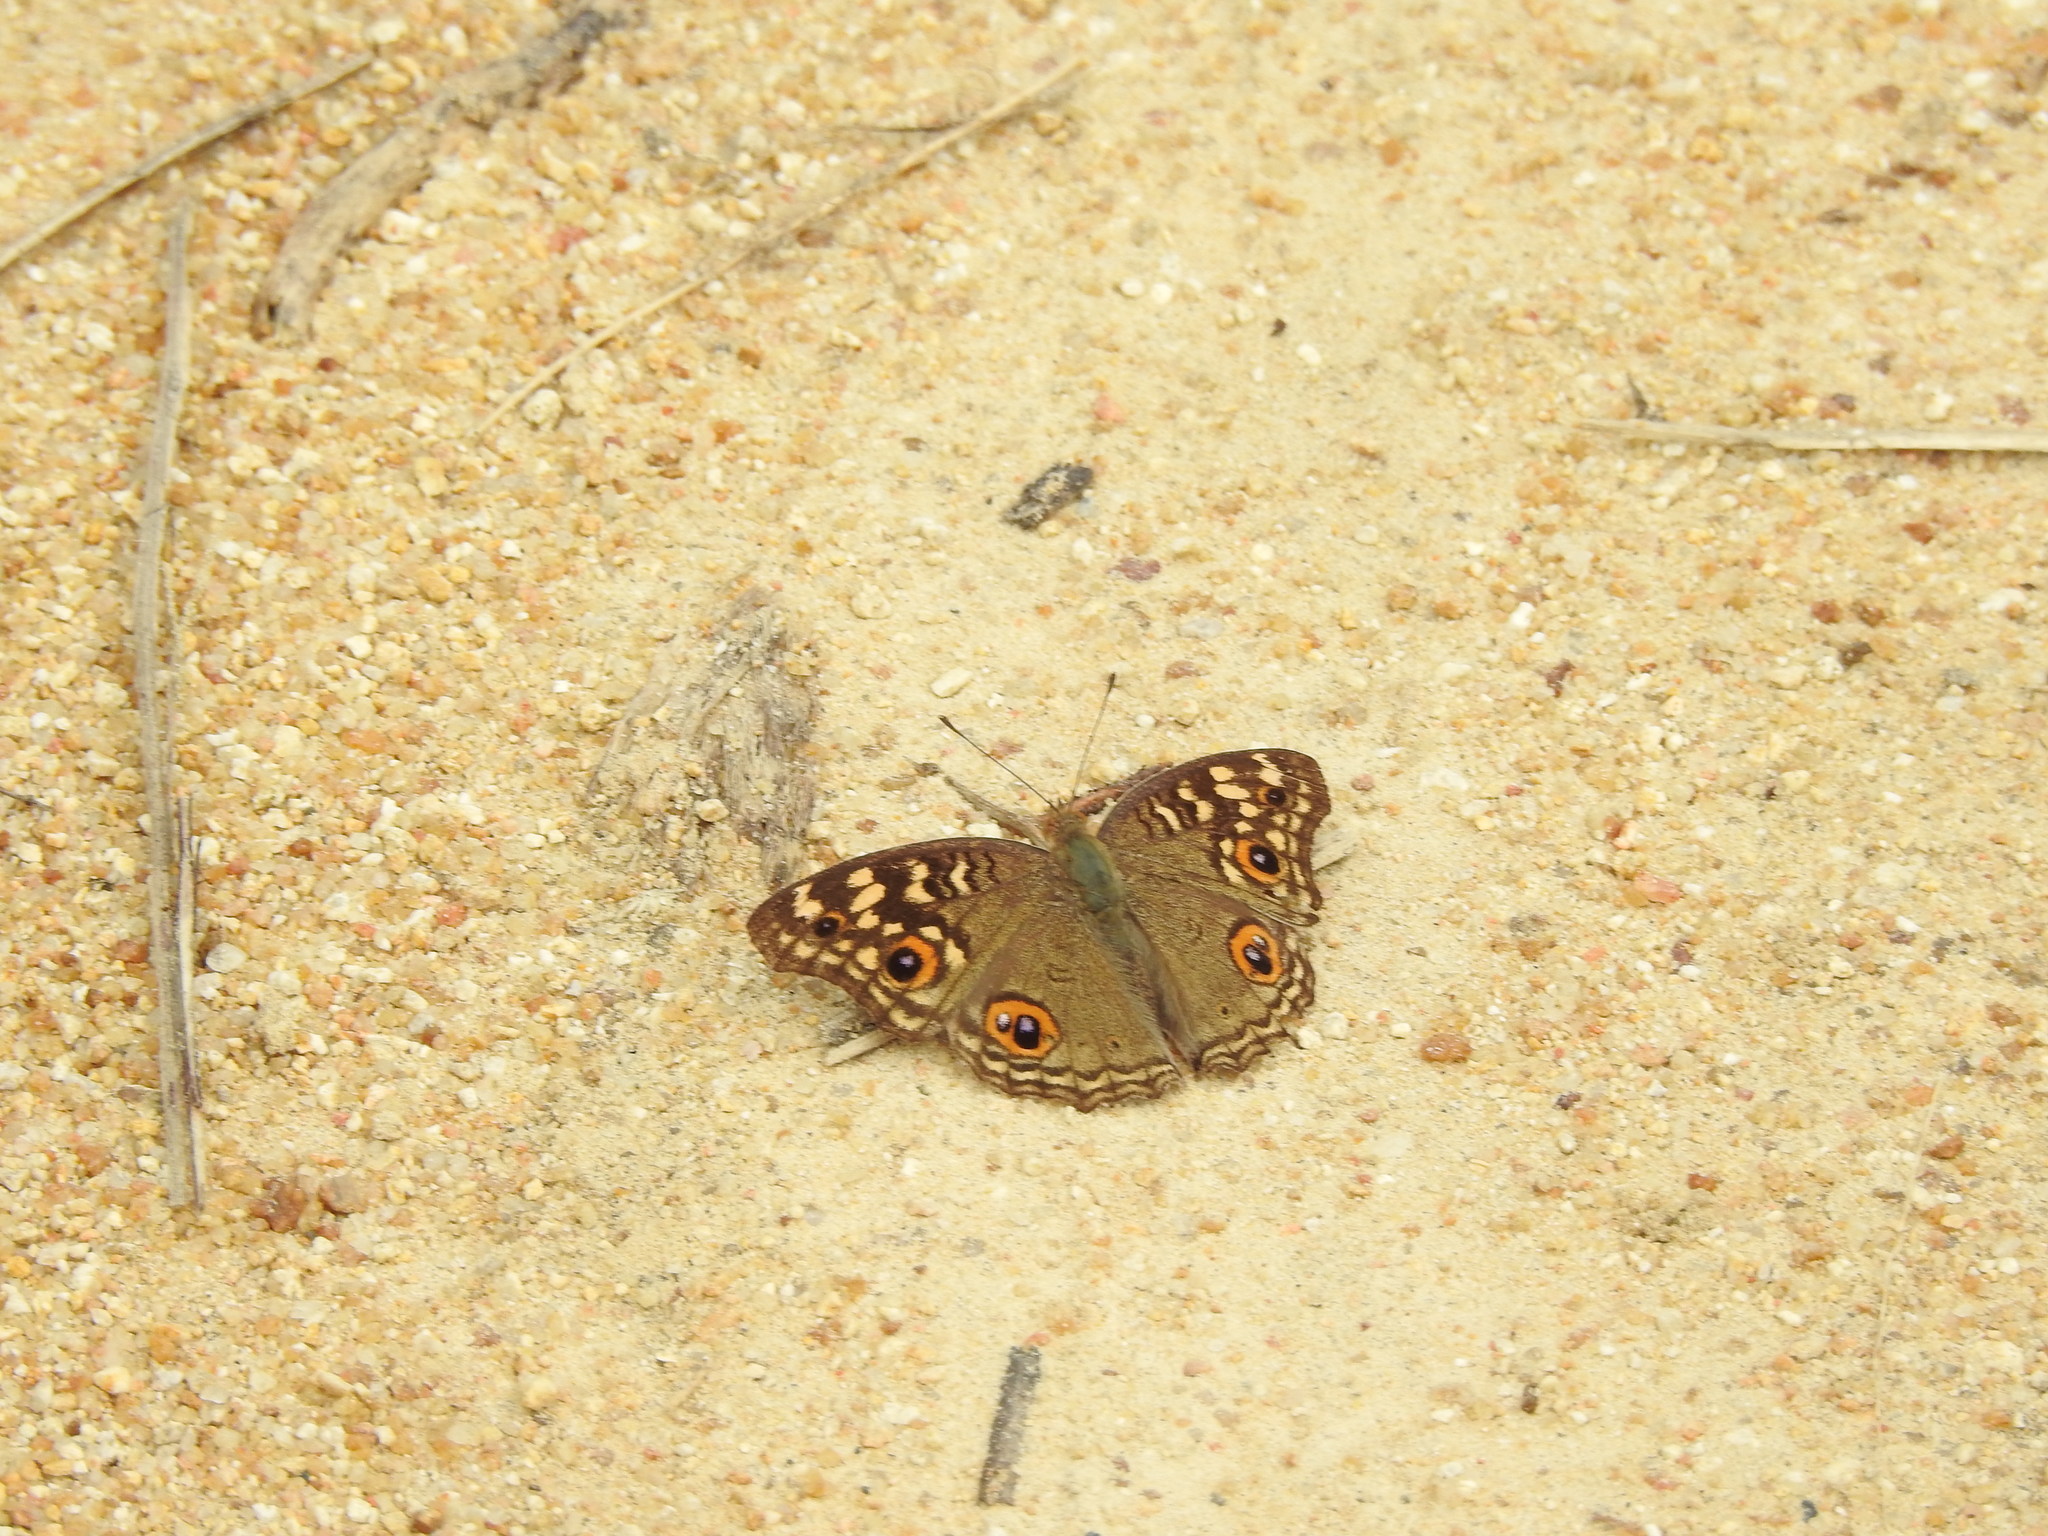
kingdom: Animalia
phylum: Arthropoda
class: Insecta
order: Lepidoptera
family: Nymphalidae
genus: Junonia
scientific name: Junonia lemonias
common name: Lemon pansy
